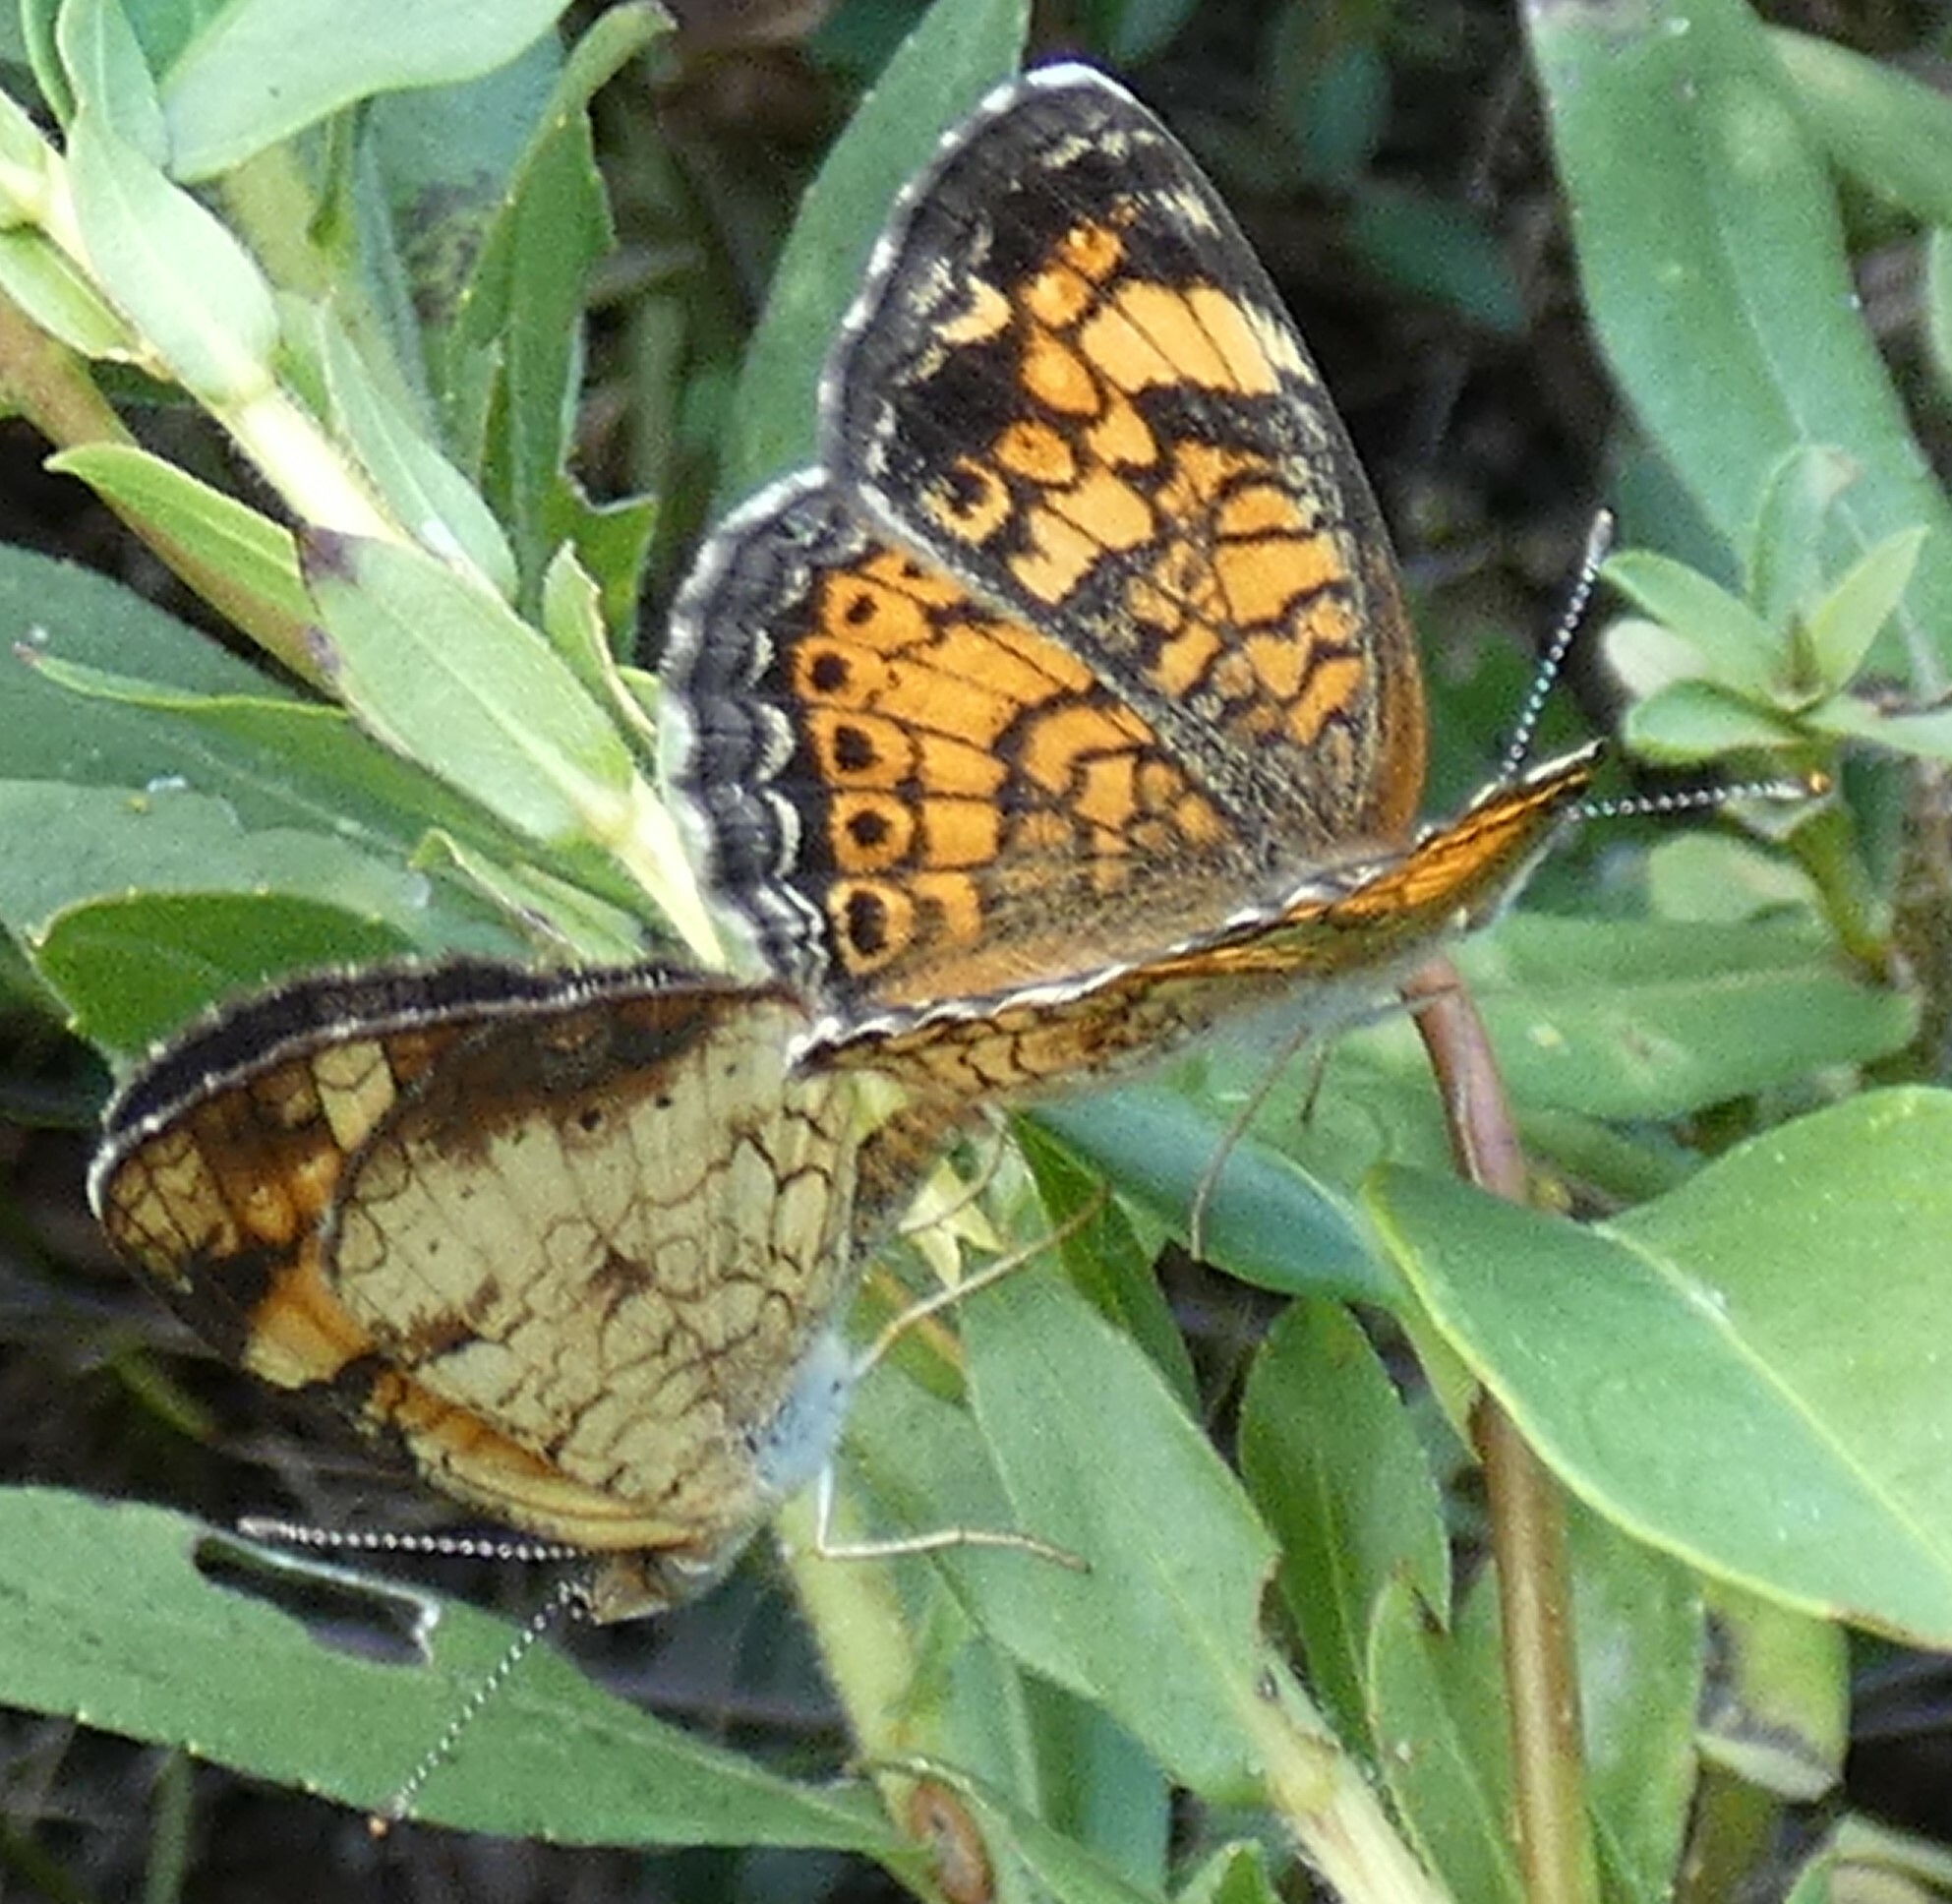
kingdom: Animalia
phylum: Arthropoda
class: Insecta
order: Lepidoptera
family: Nymphalidae
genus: Phyciodes
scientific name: Phyciodes tharos
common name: Pearl crescent
